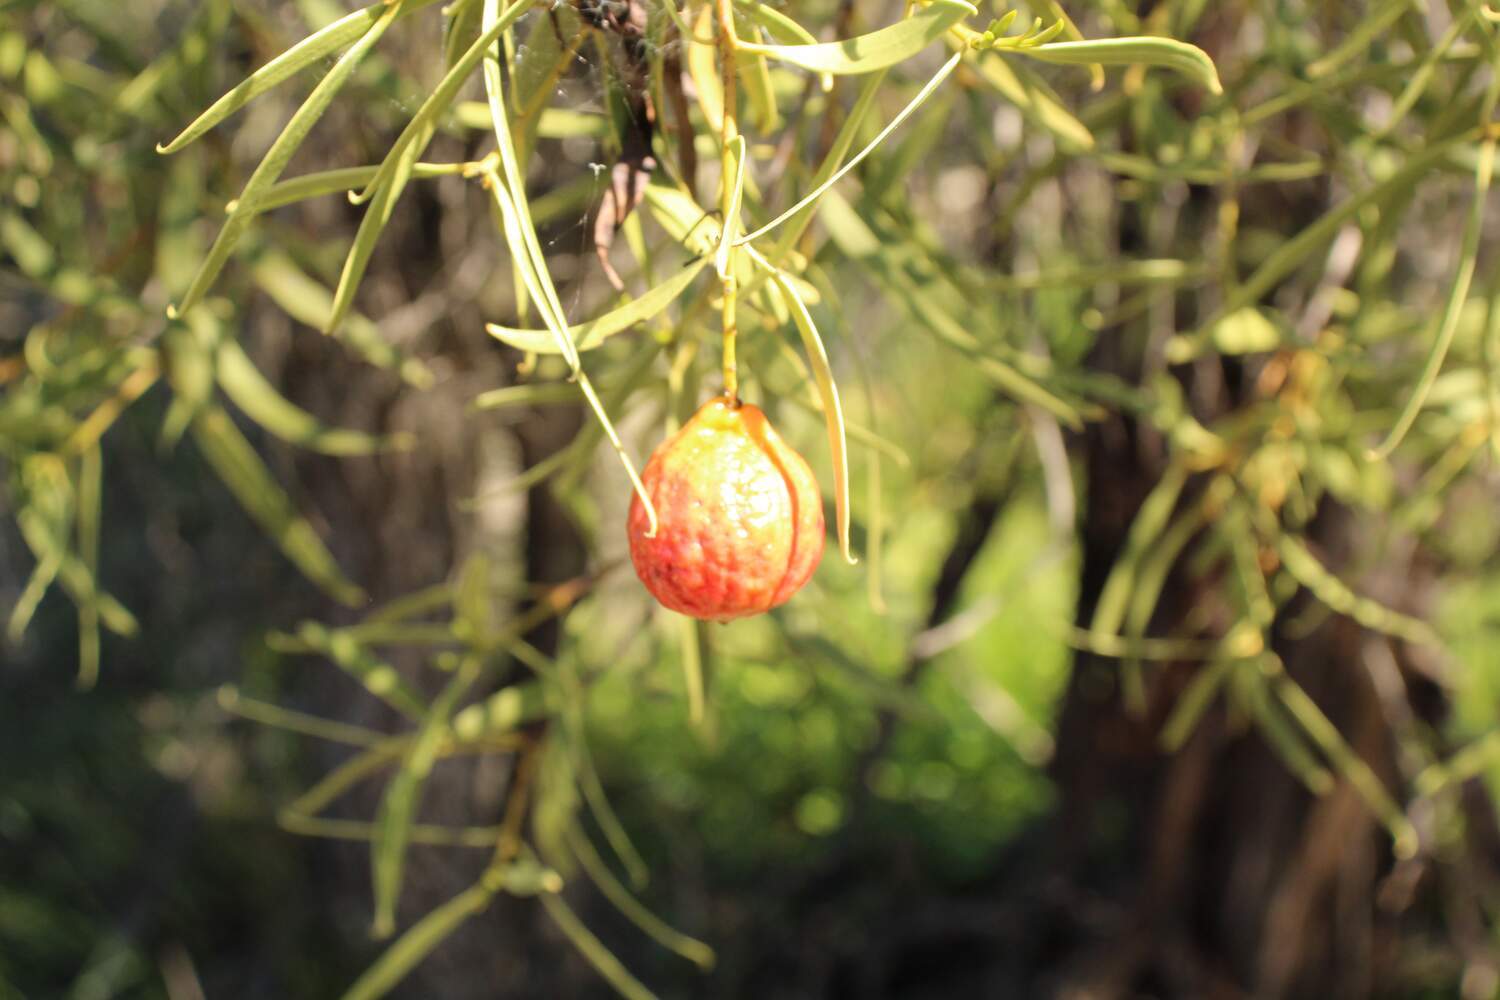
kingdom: Plantae
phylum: Tracheophyta
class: Magnoliopsida
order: Santalales
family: Santalaceae
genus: Santalum
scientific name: Santalum murrayanum
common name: Bitter quandong
